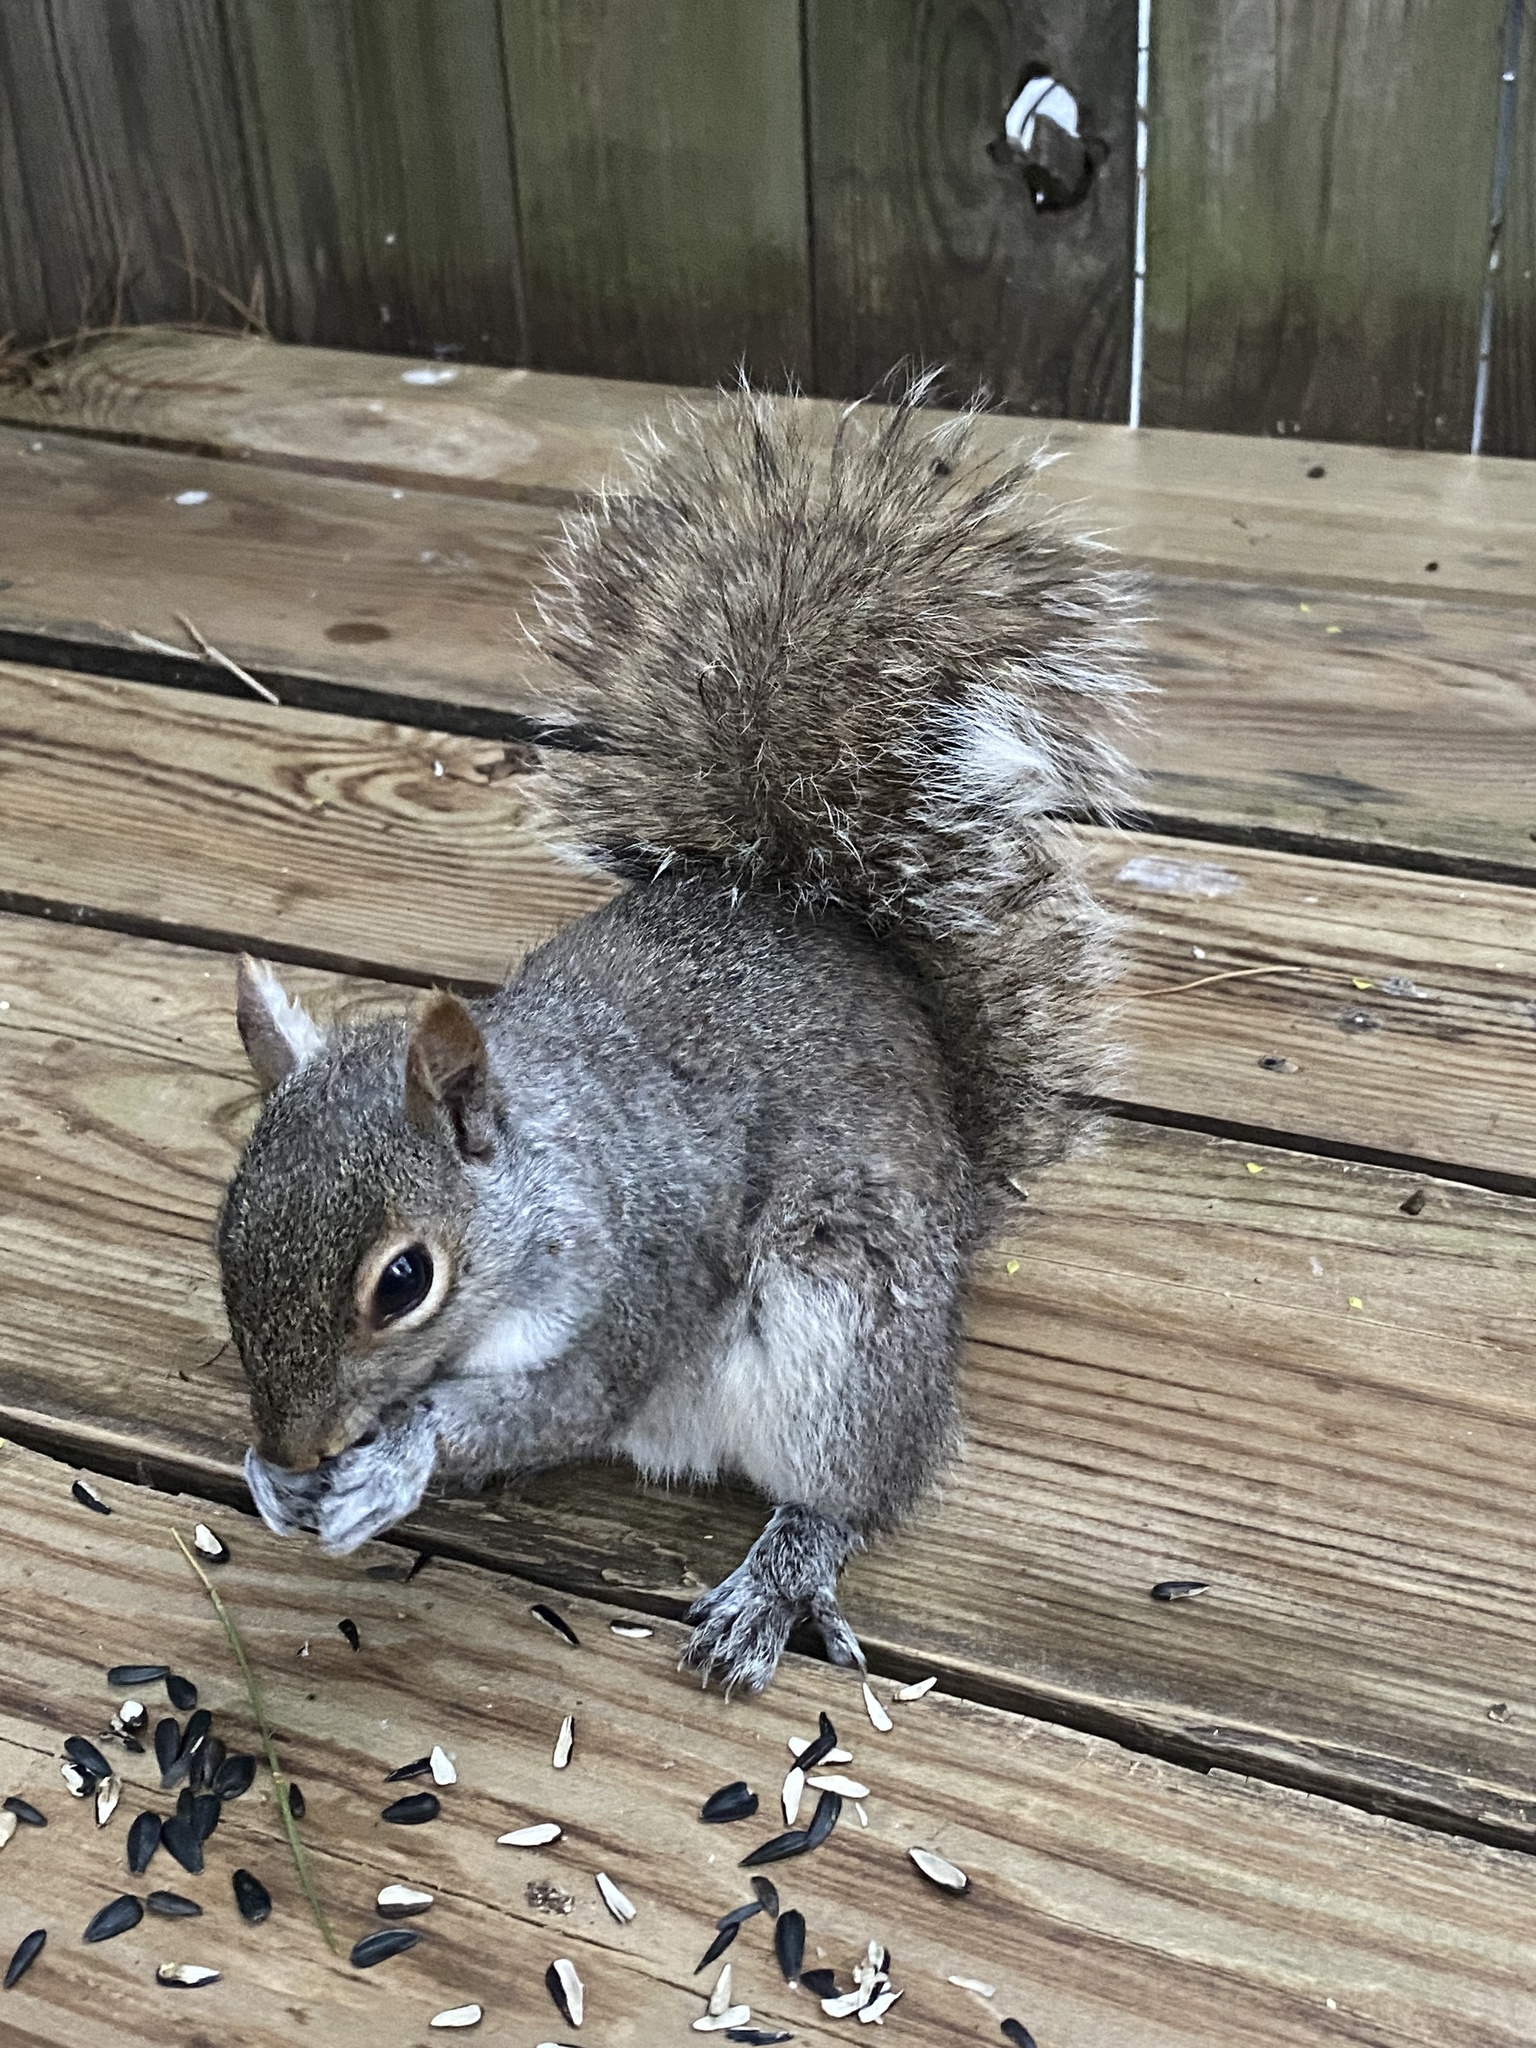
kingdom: Animalia
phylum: Chordata
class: Mammalia
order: Rodentia
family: Sciuridae
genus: Sciurus
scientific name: Sciurus carolinensis
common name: Eastern gray squirrel
